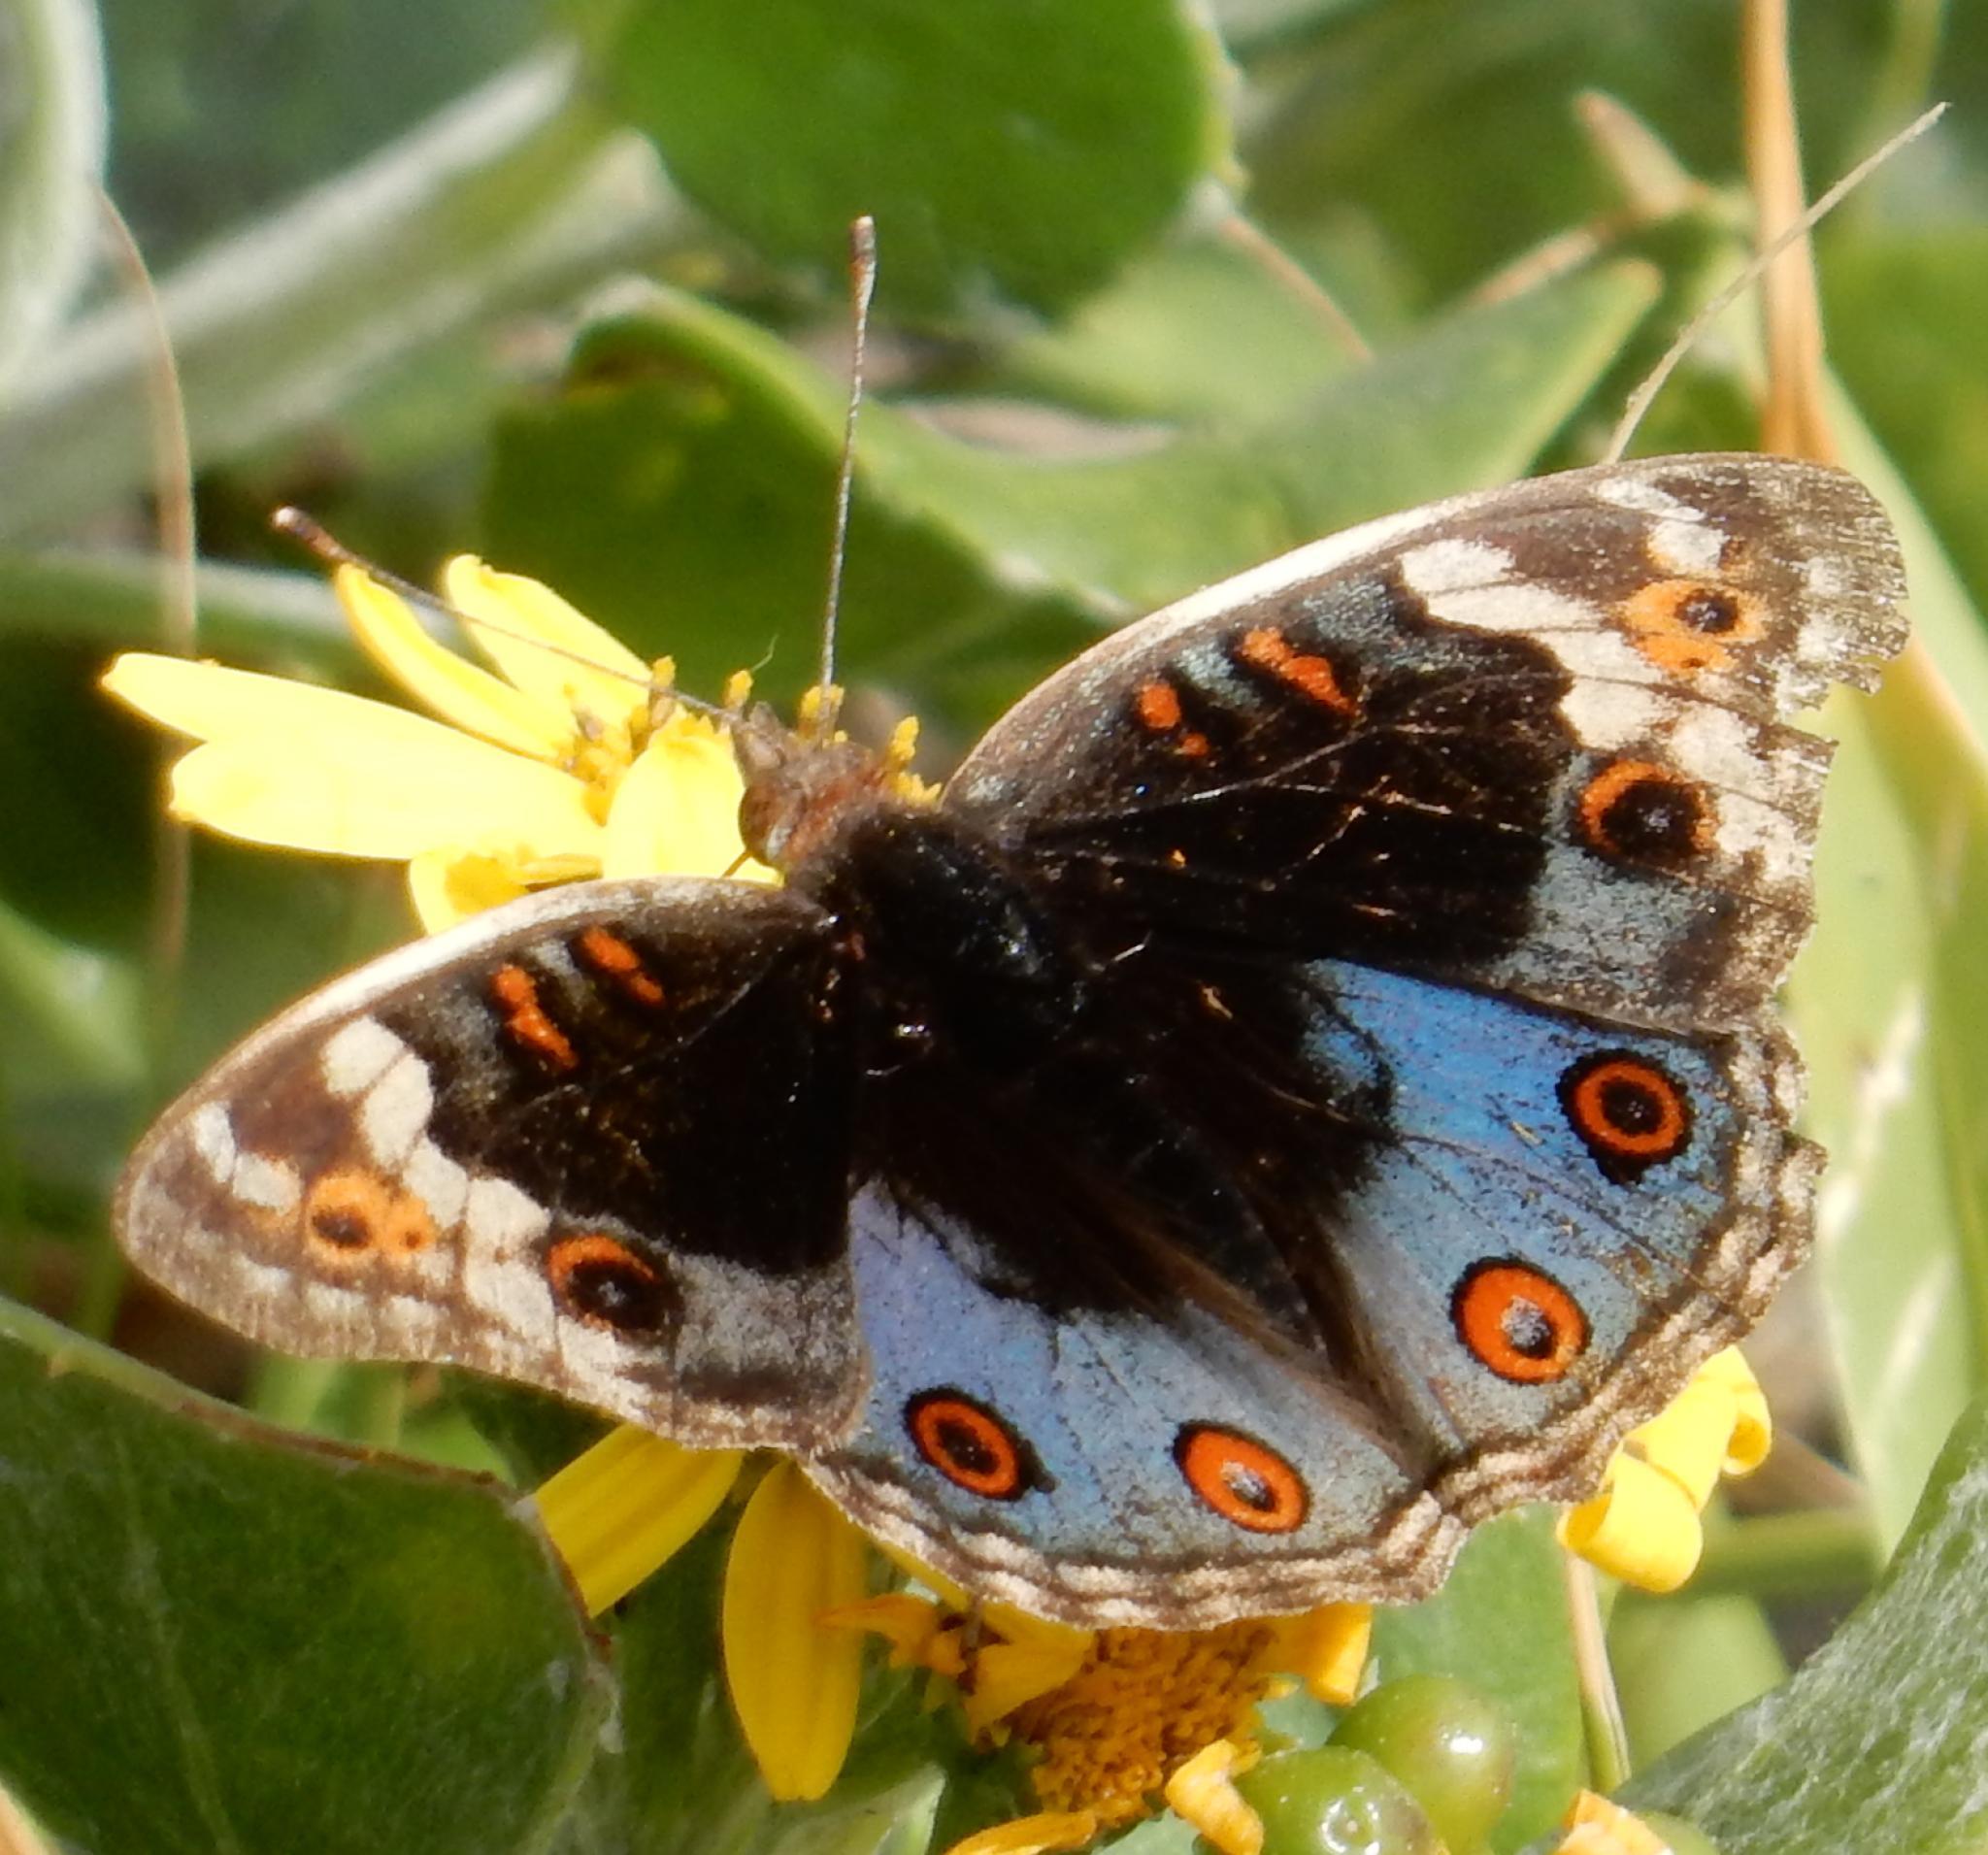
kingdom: Animalia
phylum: Arthropoda
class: Insecta
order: Lepidoptera
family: Nymphalidae
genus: Junonia
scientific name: Junonia orithya
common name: Blue pansy
